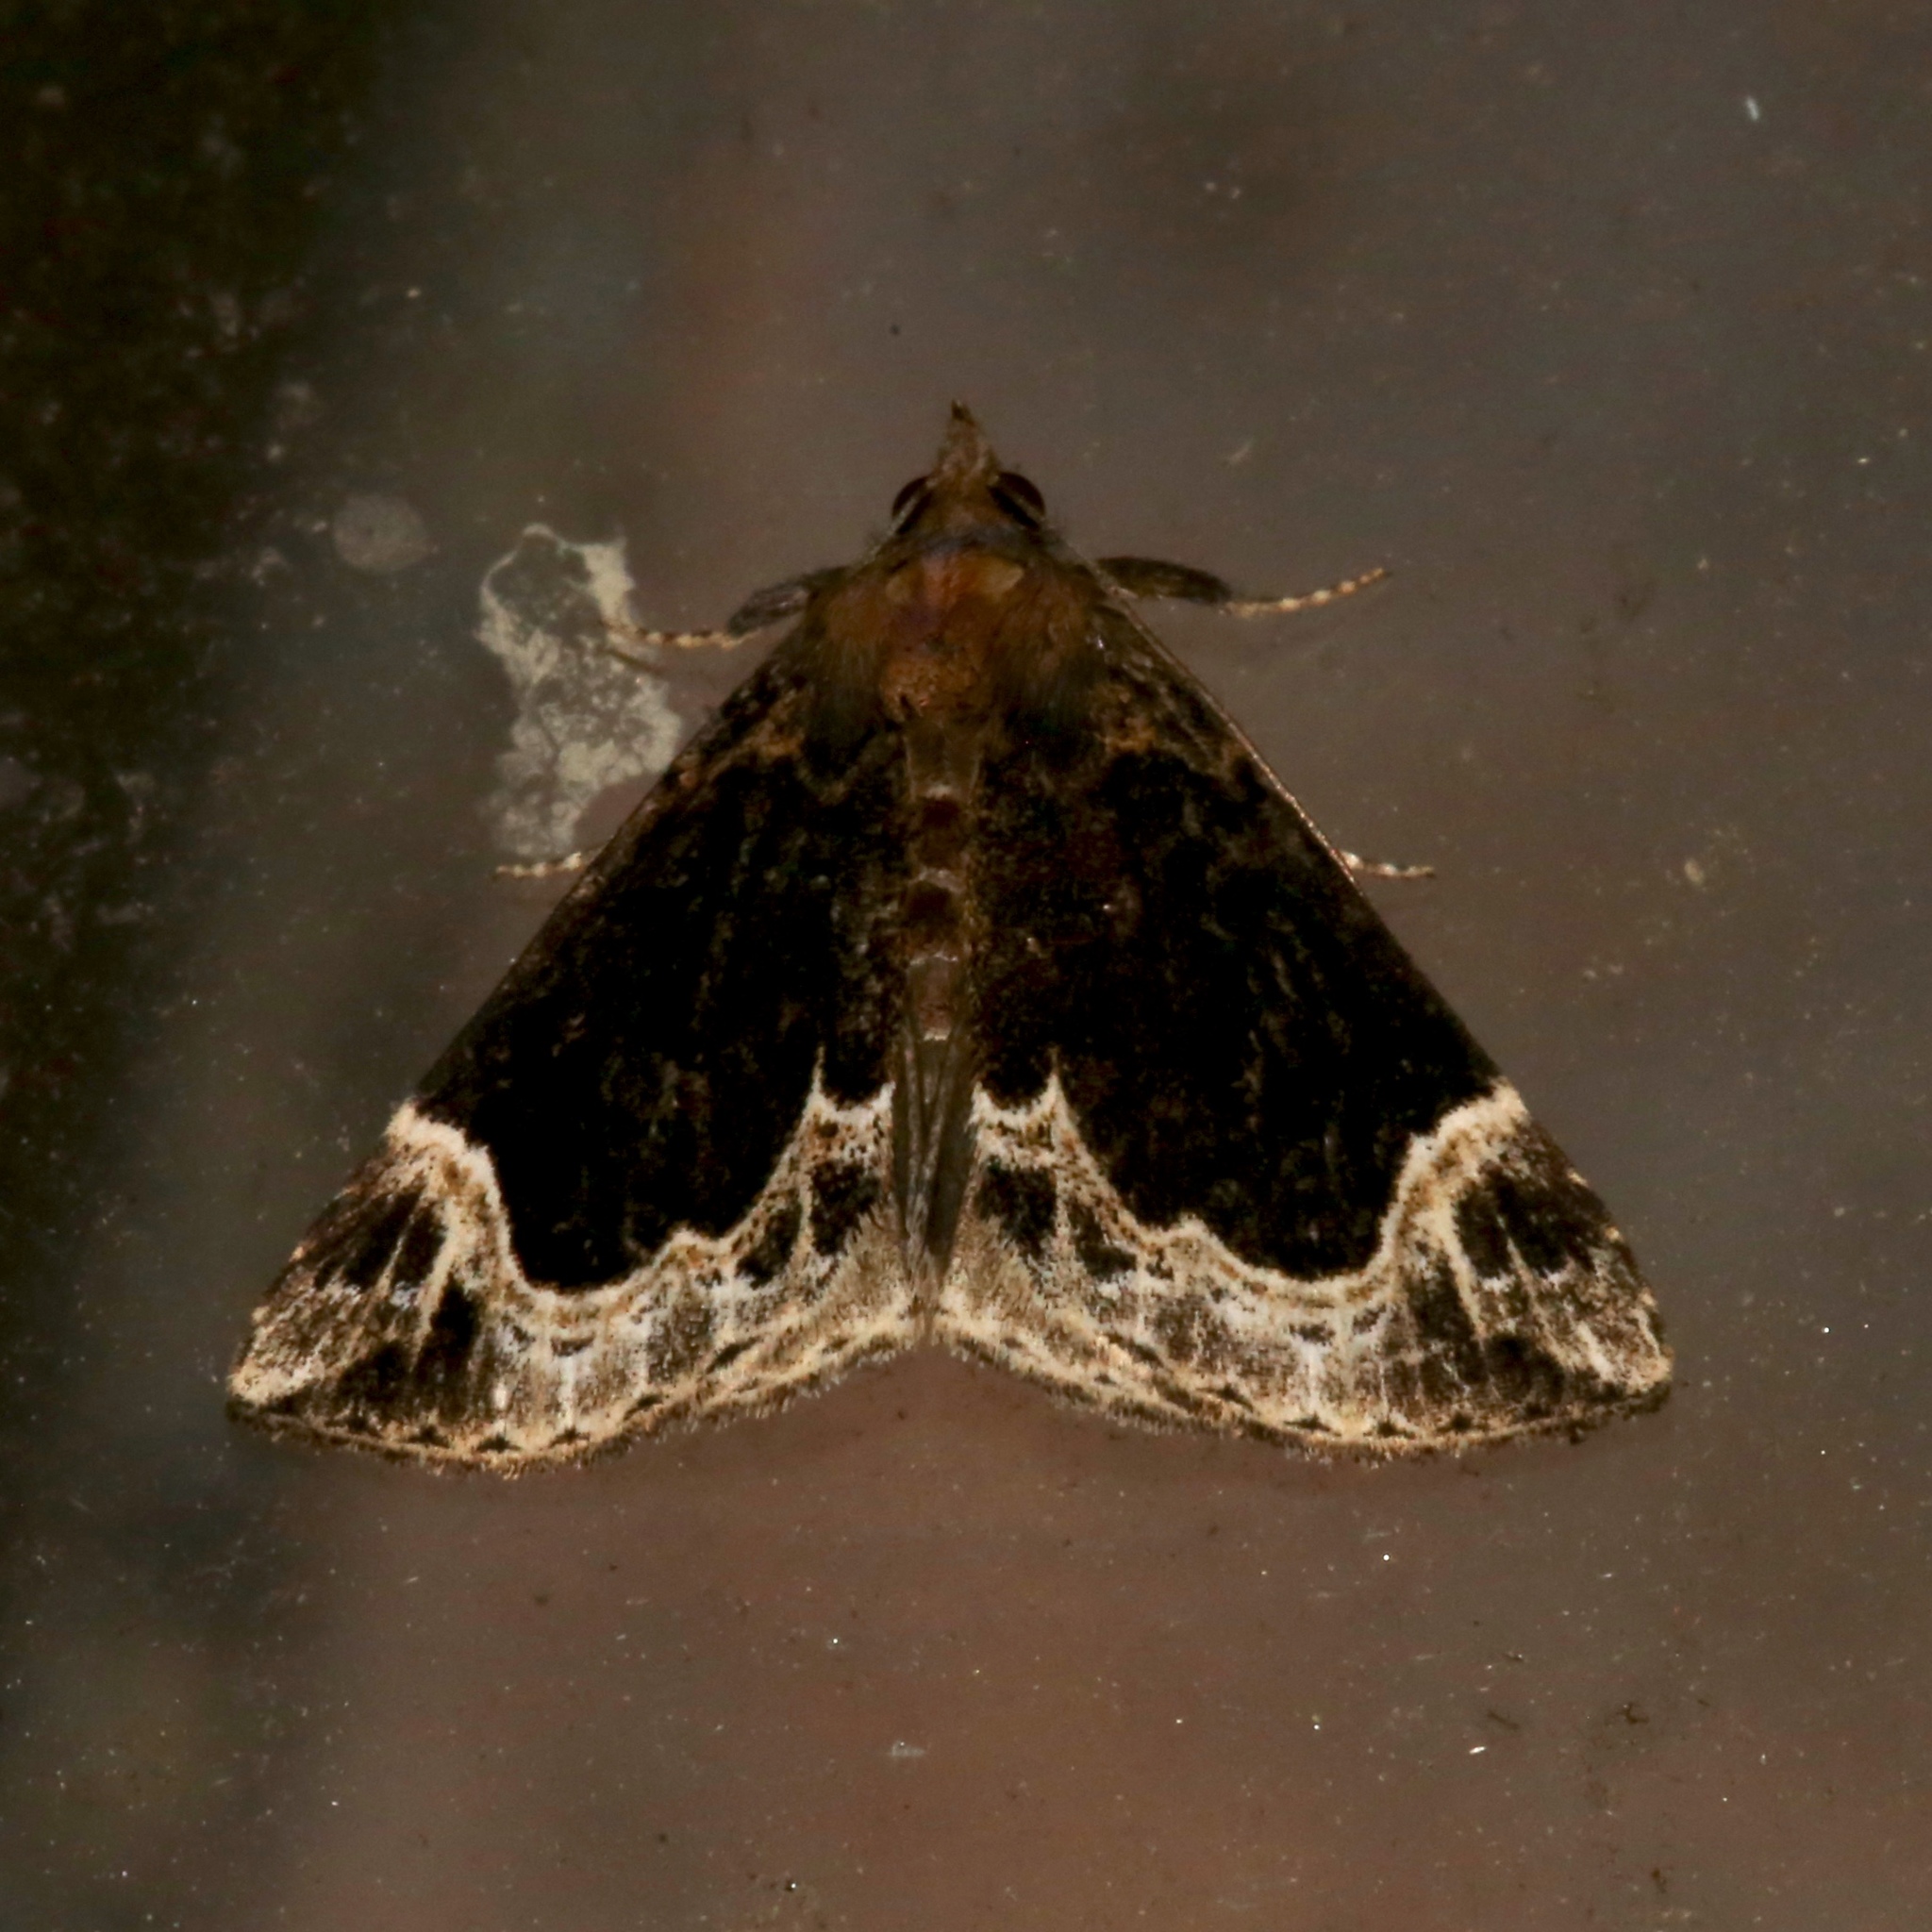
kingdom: Animalia
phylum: Arthropoda
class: Insecta
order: Lepidoptera
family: Erebidae
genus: Hypena
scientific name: Hypena abalienalis
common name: White-lined snout
